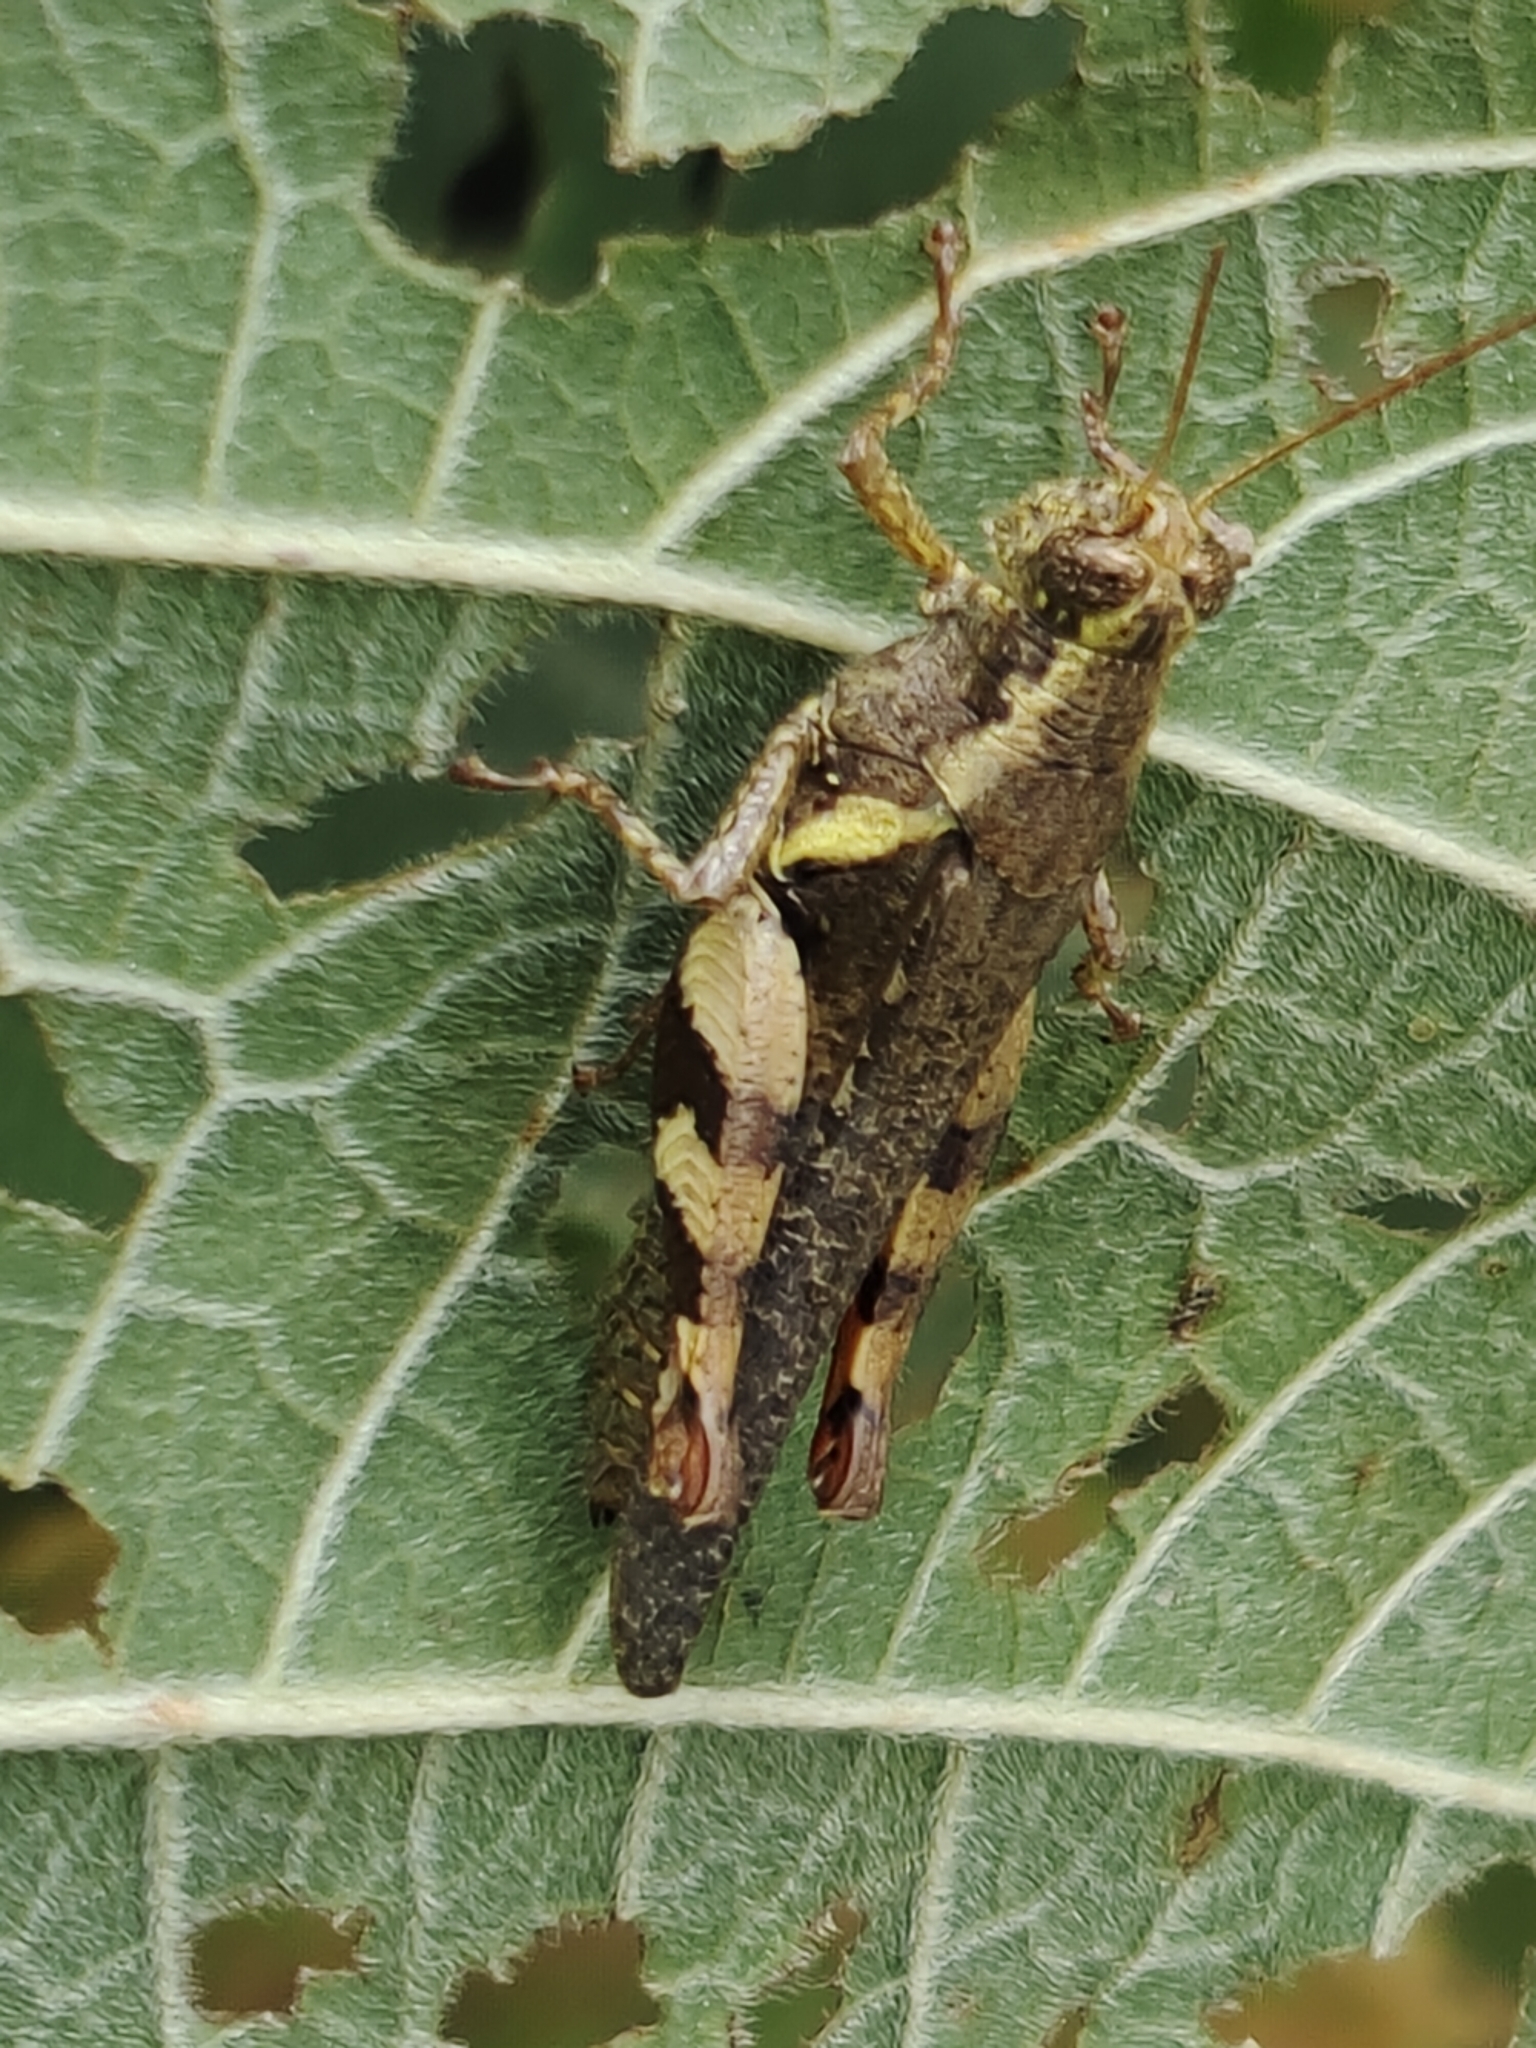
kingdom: Animalia
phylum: Arthropoda
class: Insecta
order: Orthoptera
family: Acrididae
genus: Xenocatantops
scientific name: Xenocatantops humile
